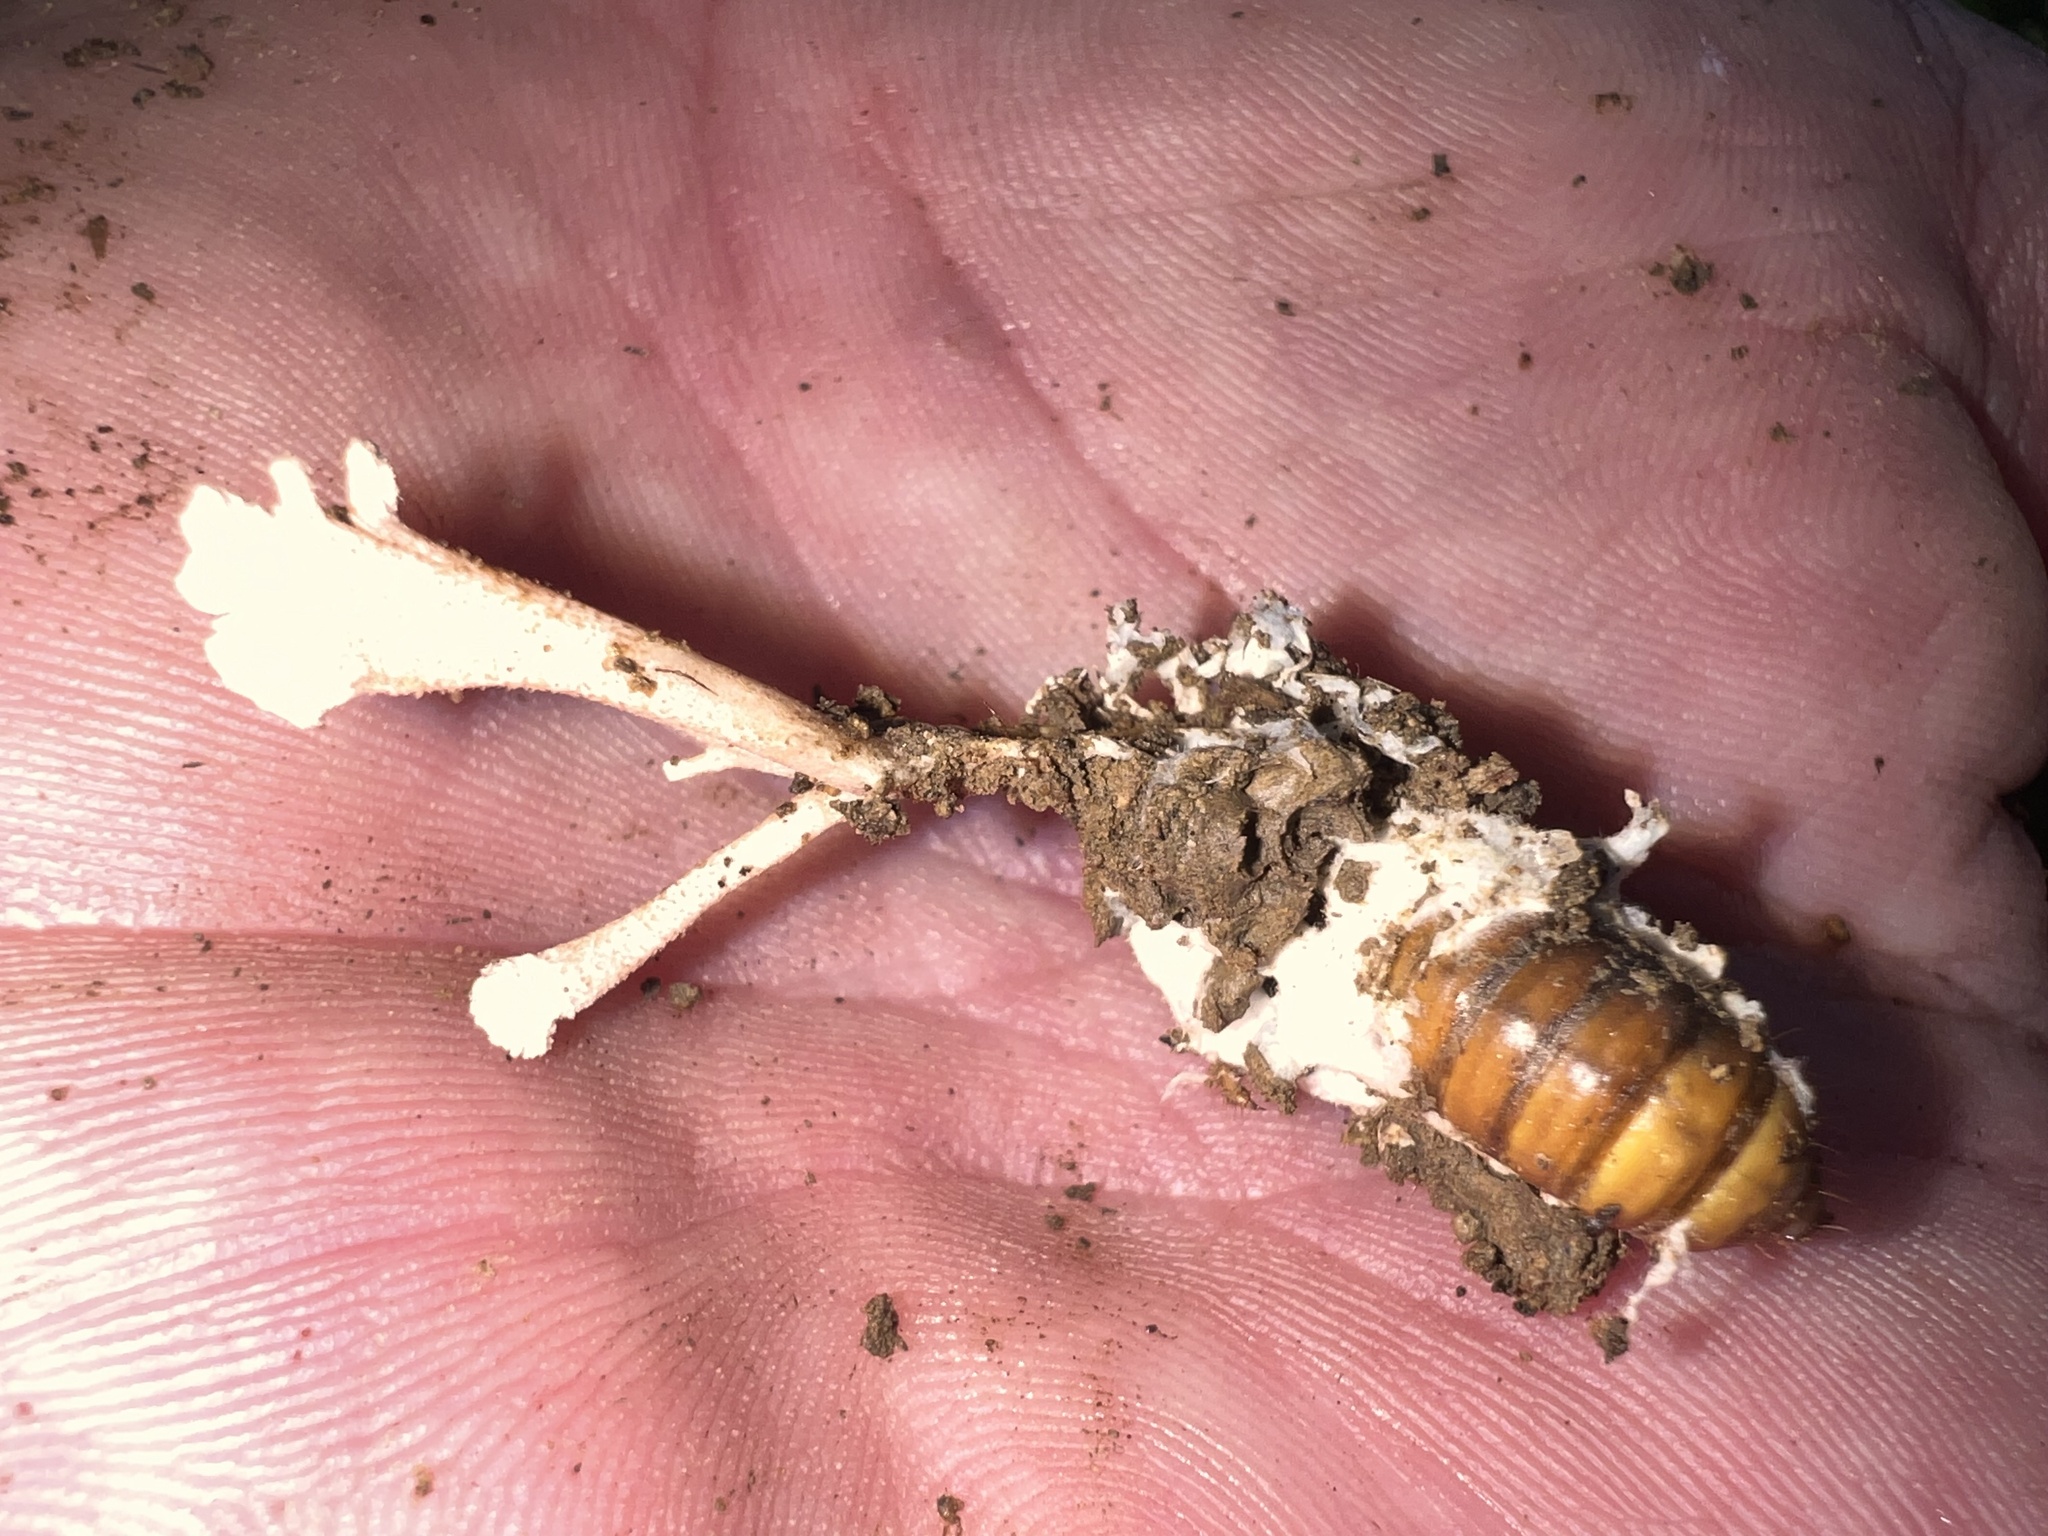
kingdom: Fungi
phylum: Ascomycota
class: Sordariomycetes
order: Hypocreales
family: Cordycipitaceae
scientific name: Cordycipitaceae
